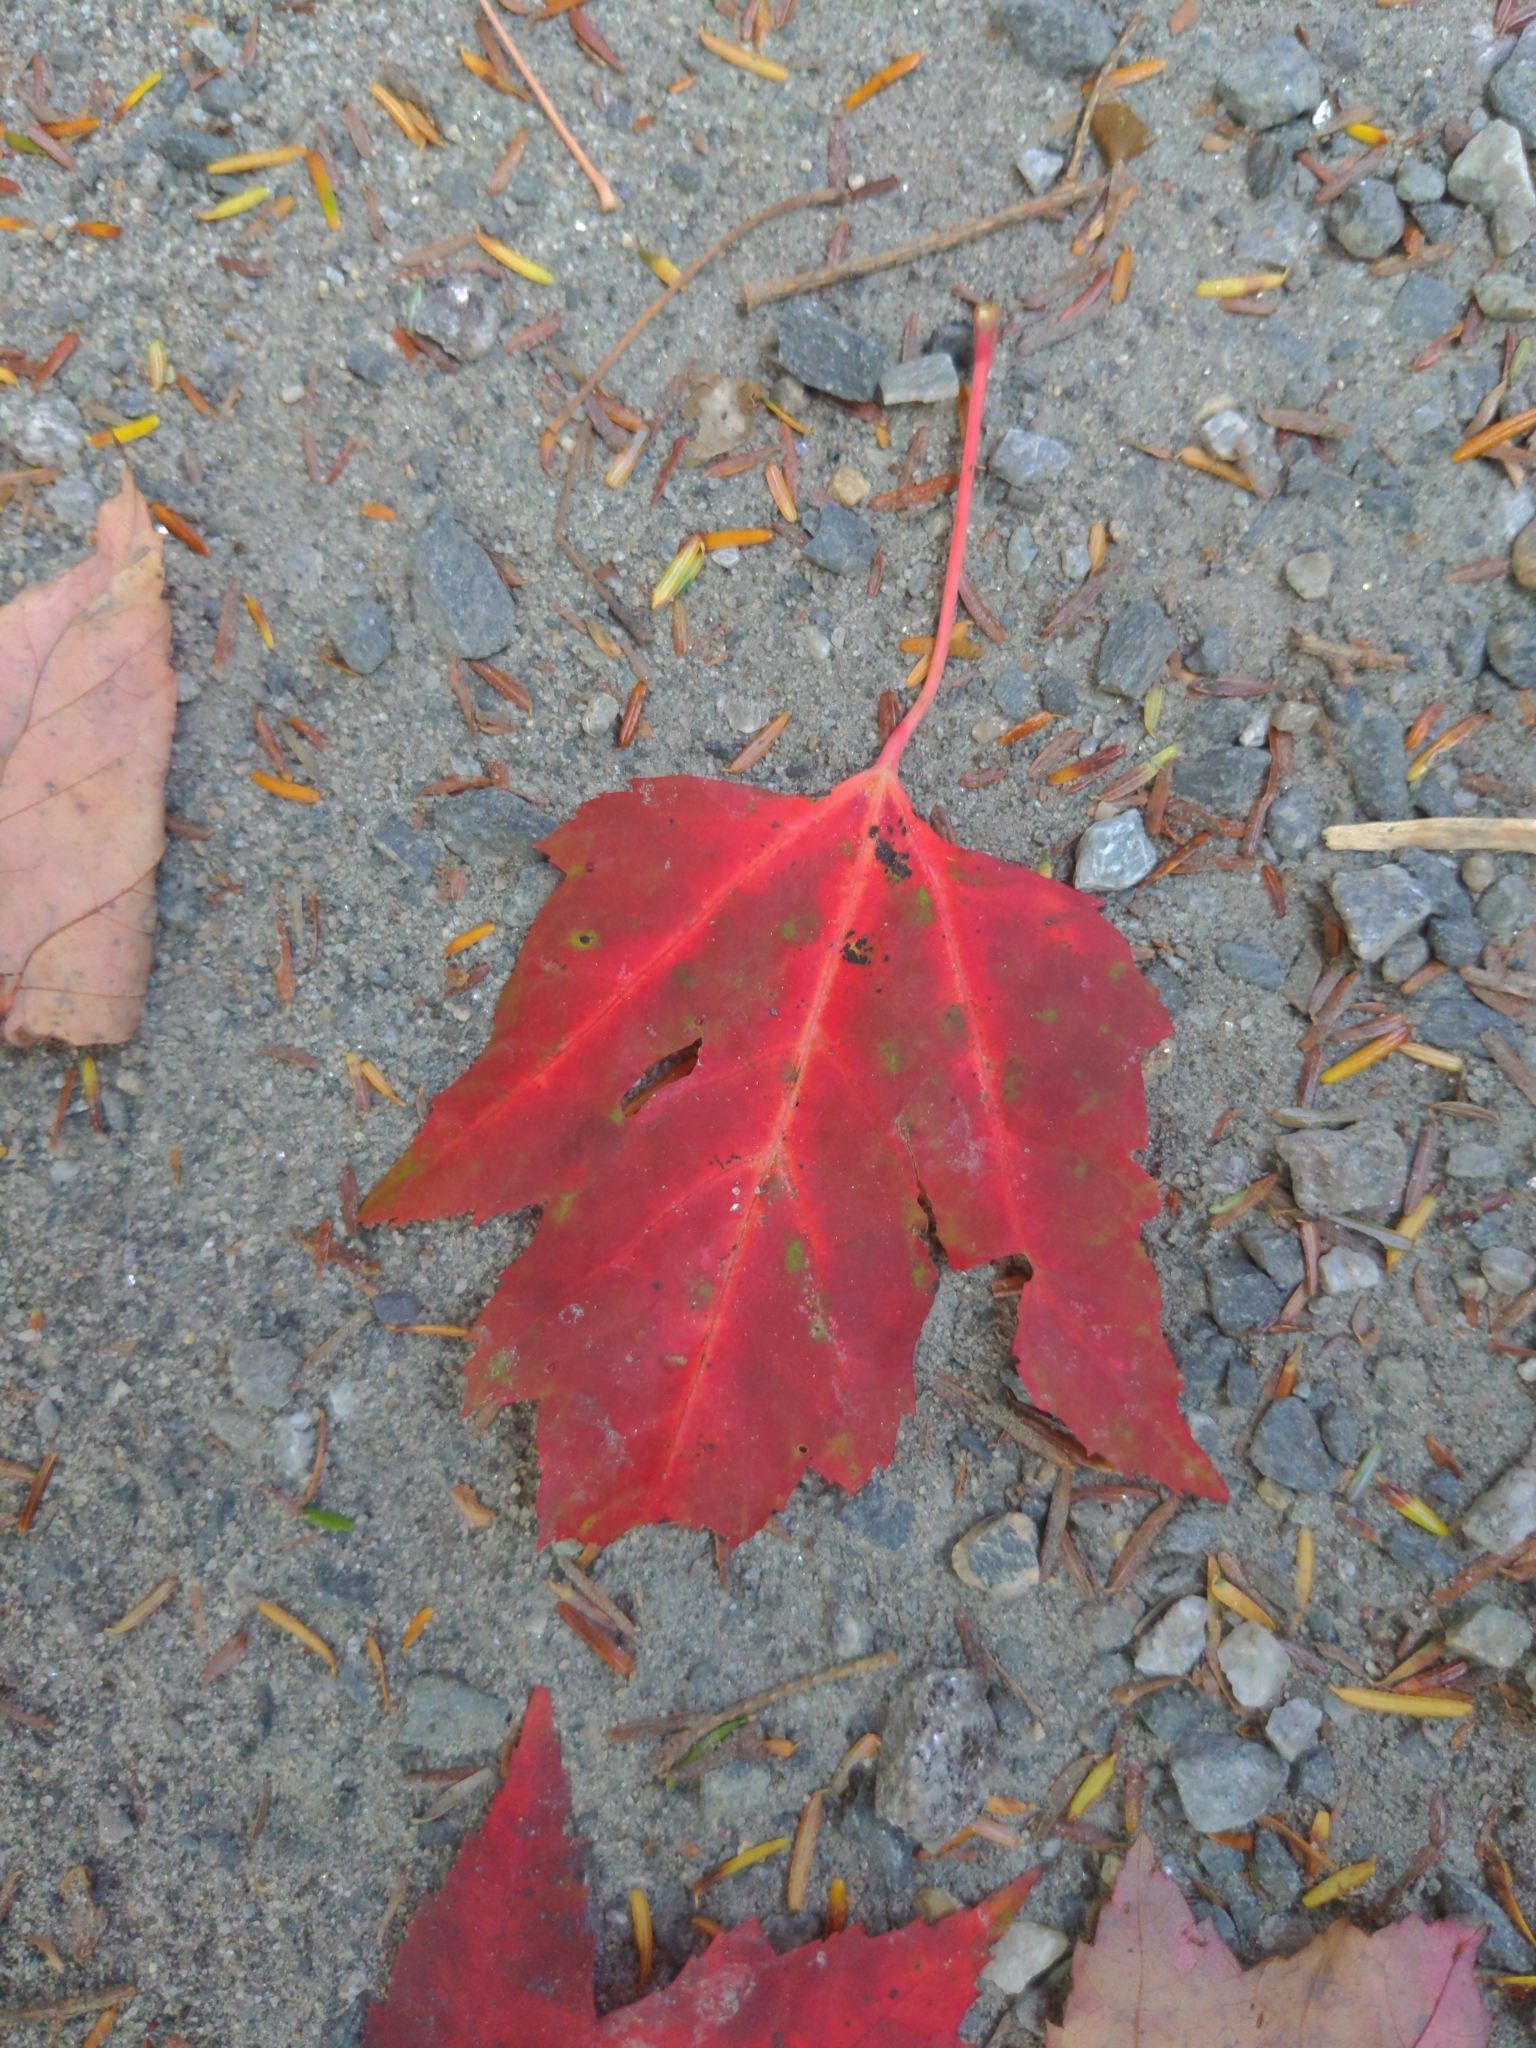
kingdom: Plantae
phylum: Tracheophyta
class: Magnoliopsida
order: Sapindales
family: Sapindaceae
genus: Acer
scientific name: Acer rubrum
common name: Red maple
